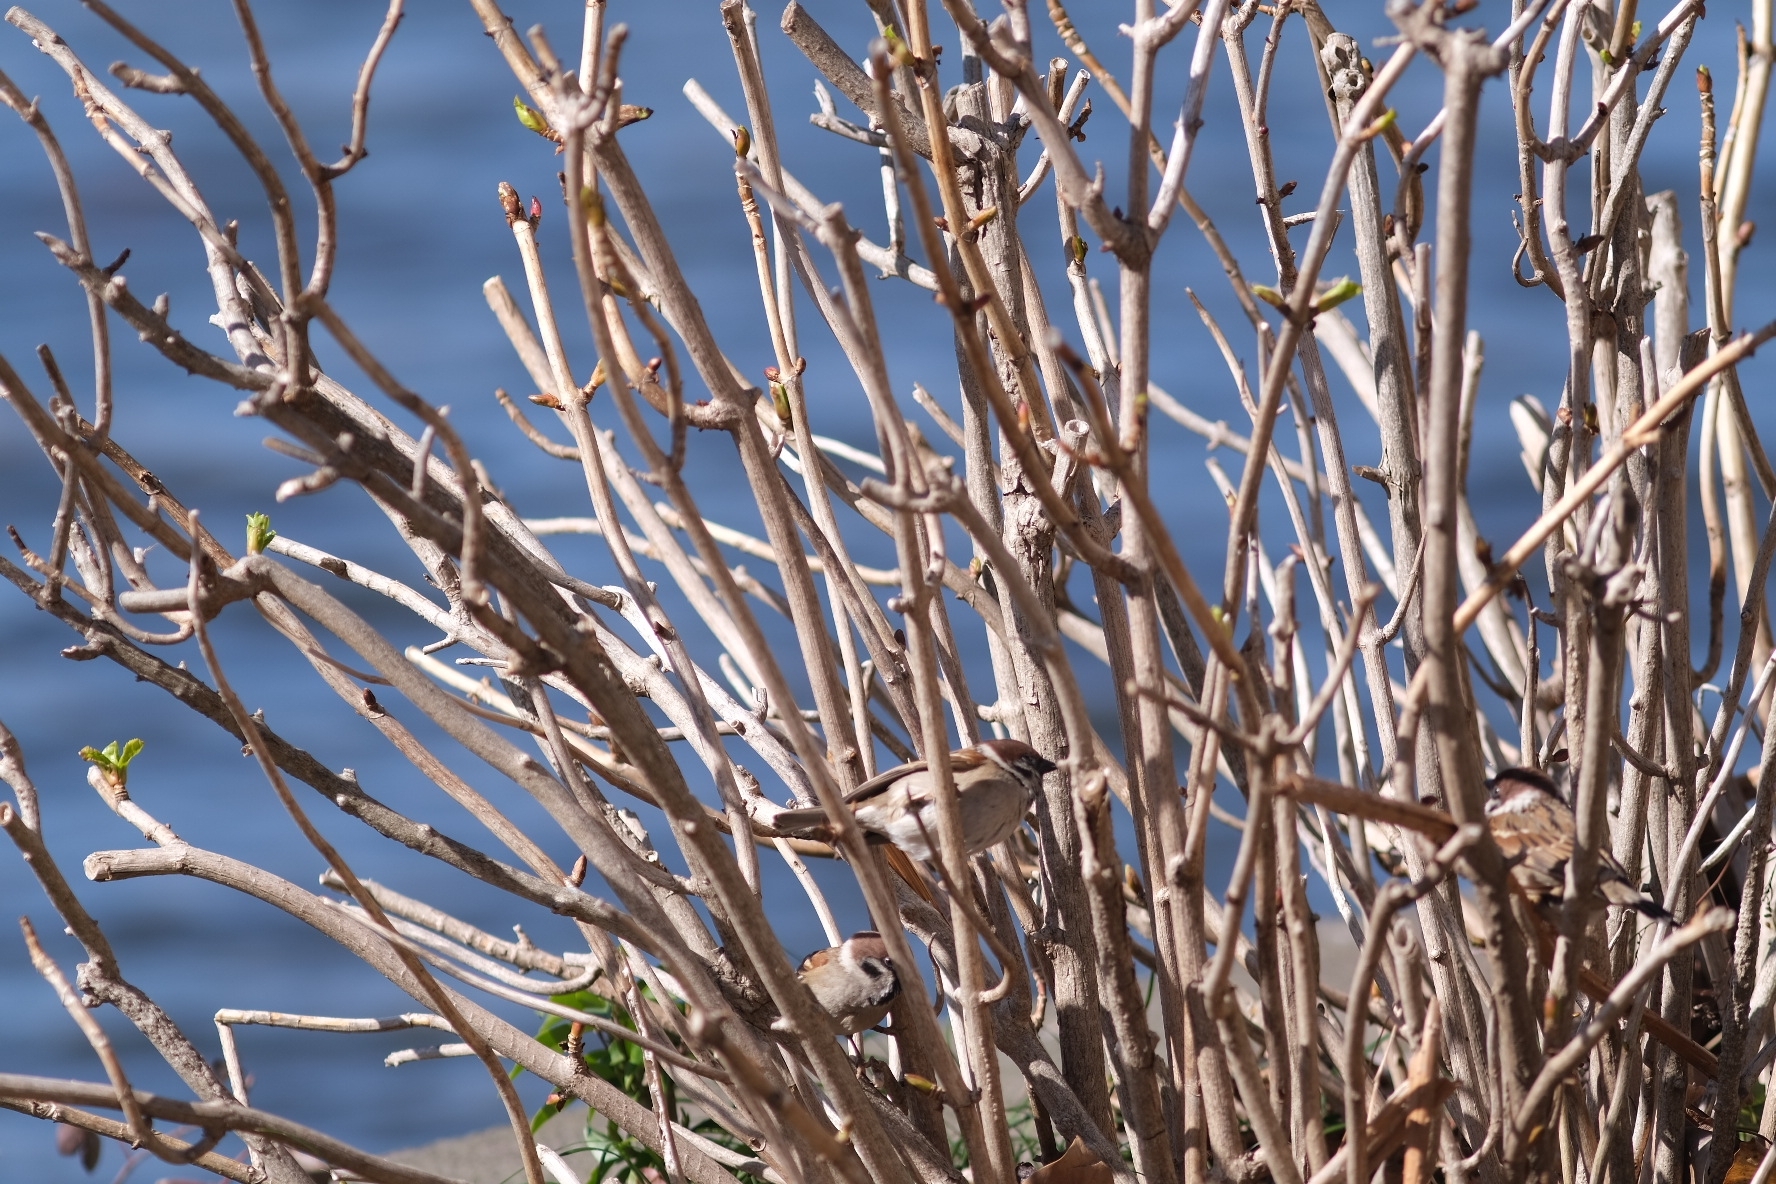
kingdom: Animalia
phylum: Chordata
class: Aves
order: Passeriformes
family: Passeridae
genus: Passer
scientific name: Passer montanus
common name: Eurasian tree sparrow
